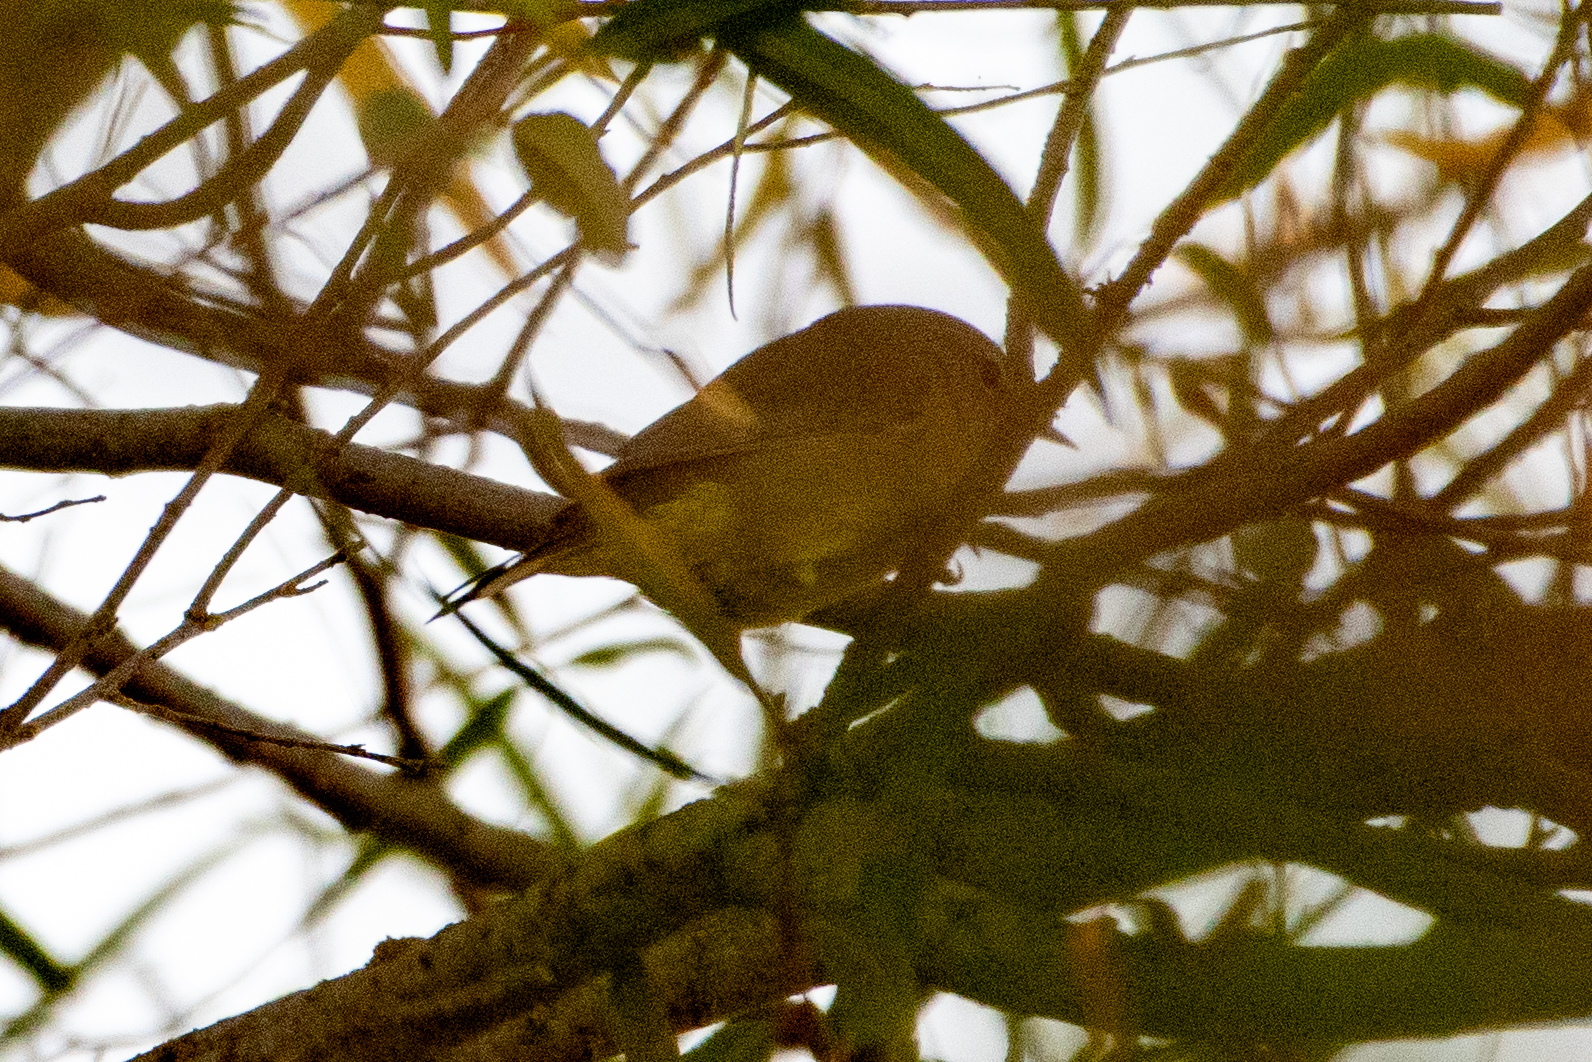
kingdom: Animalia
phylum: Chordata
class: Aves
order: Passeriformes
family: Parulidae
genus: Leiothlypis
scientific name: Leiothlypis celata
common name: Orange-crowned warbler
